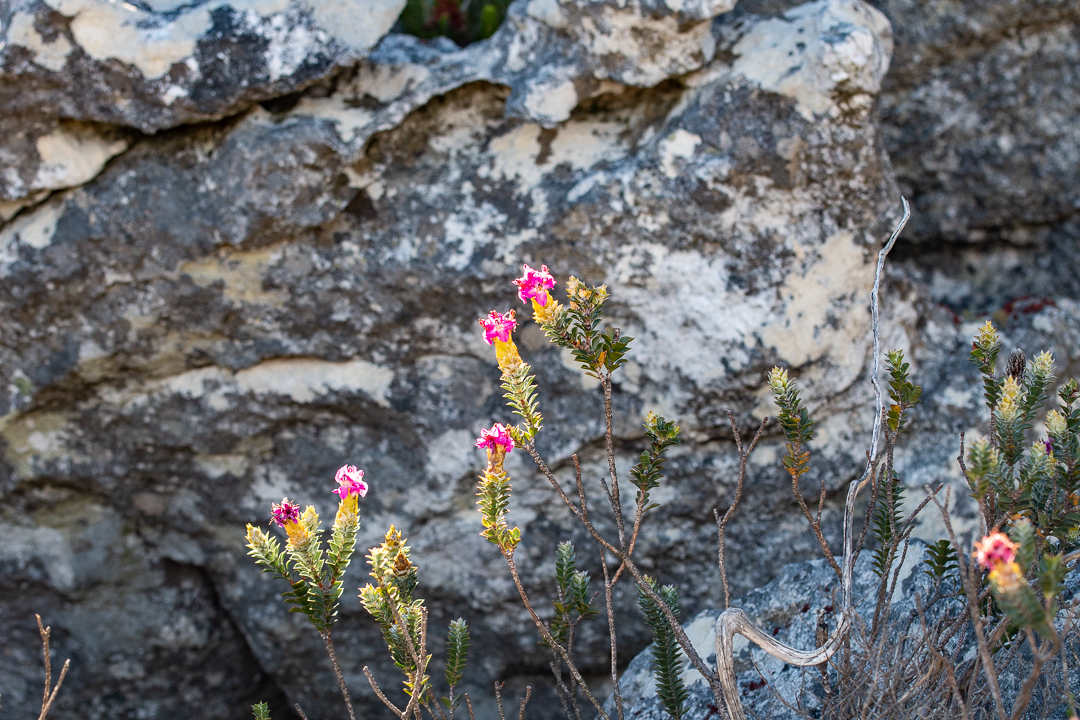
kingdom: Plantae
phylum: Tracheophyta
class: Magnoliopsida
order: Myrtales
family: Penaeaceae
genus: Saltera
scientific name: Saltera sarcocolla
